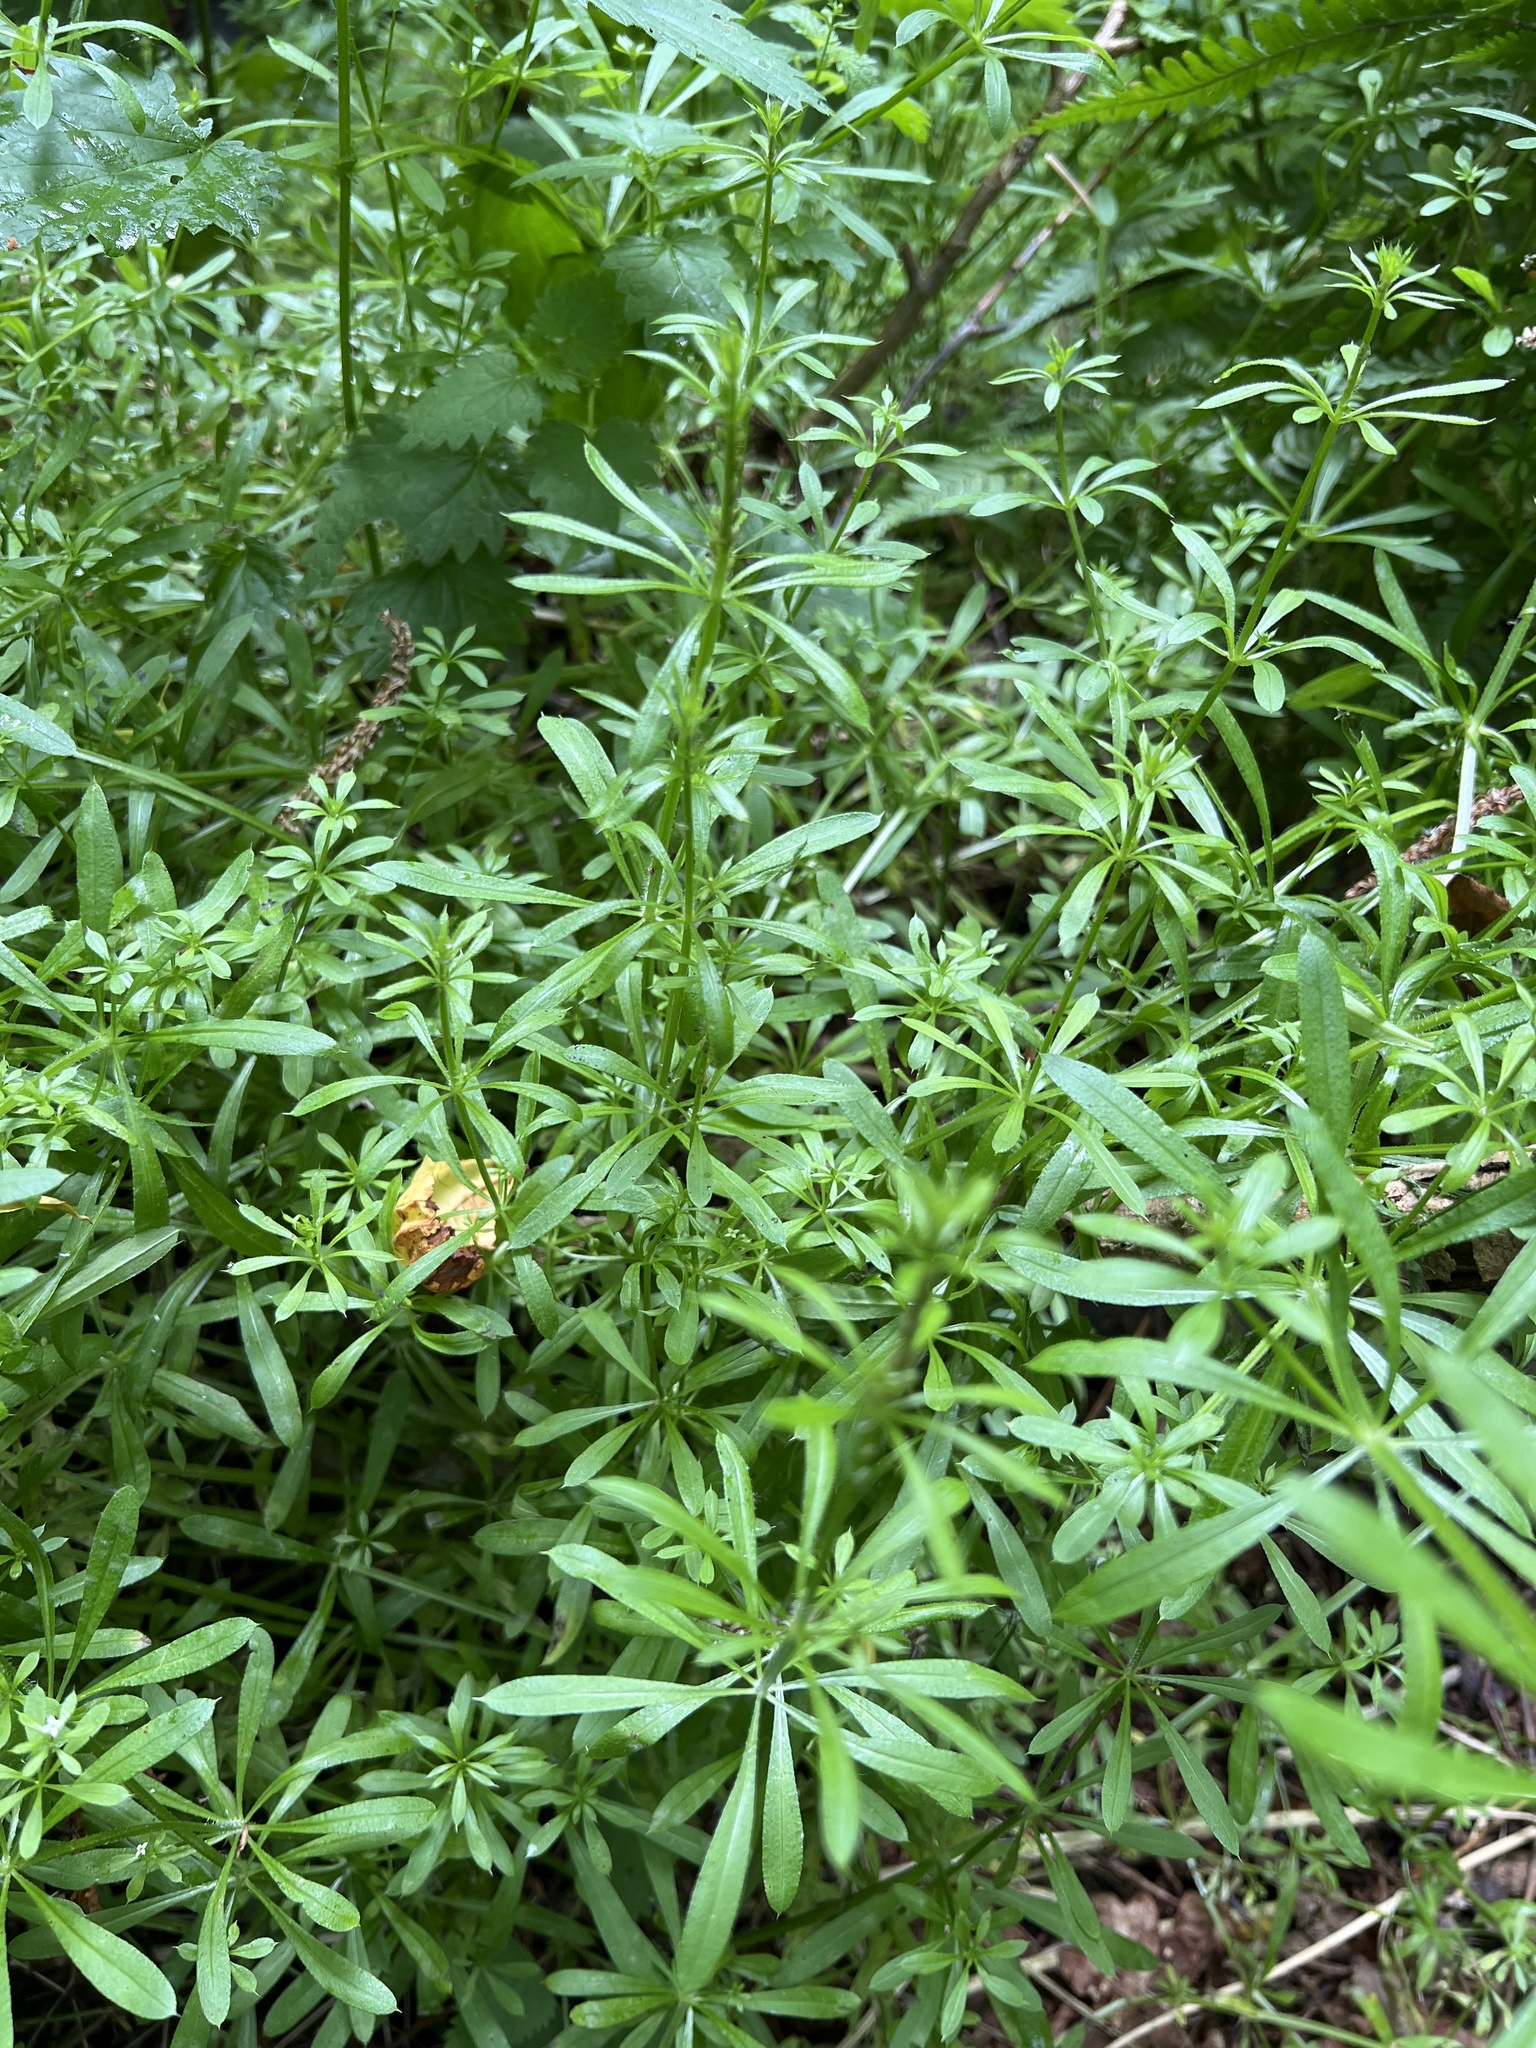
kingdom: Plantae
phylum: Tracheophyta
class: Magnoliopsida
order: Gentianales
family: Rubiaceae
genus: Galium
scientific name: Galium aparine
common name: Cleavers
